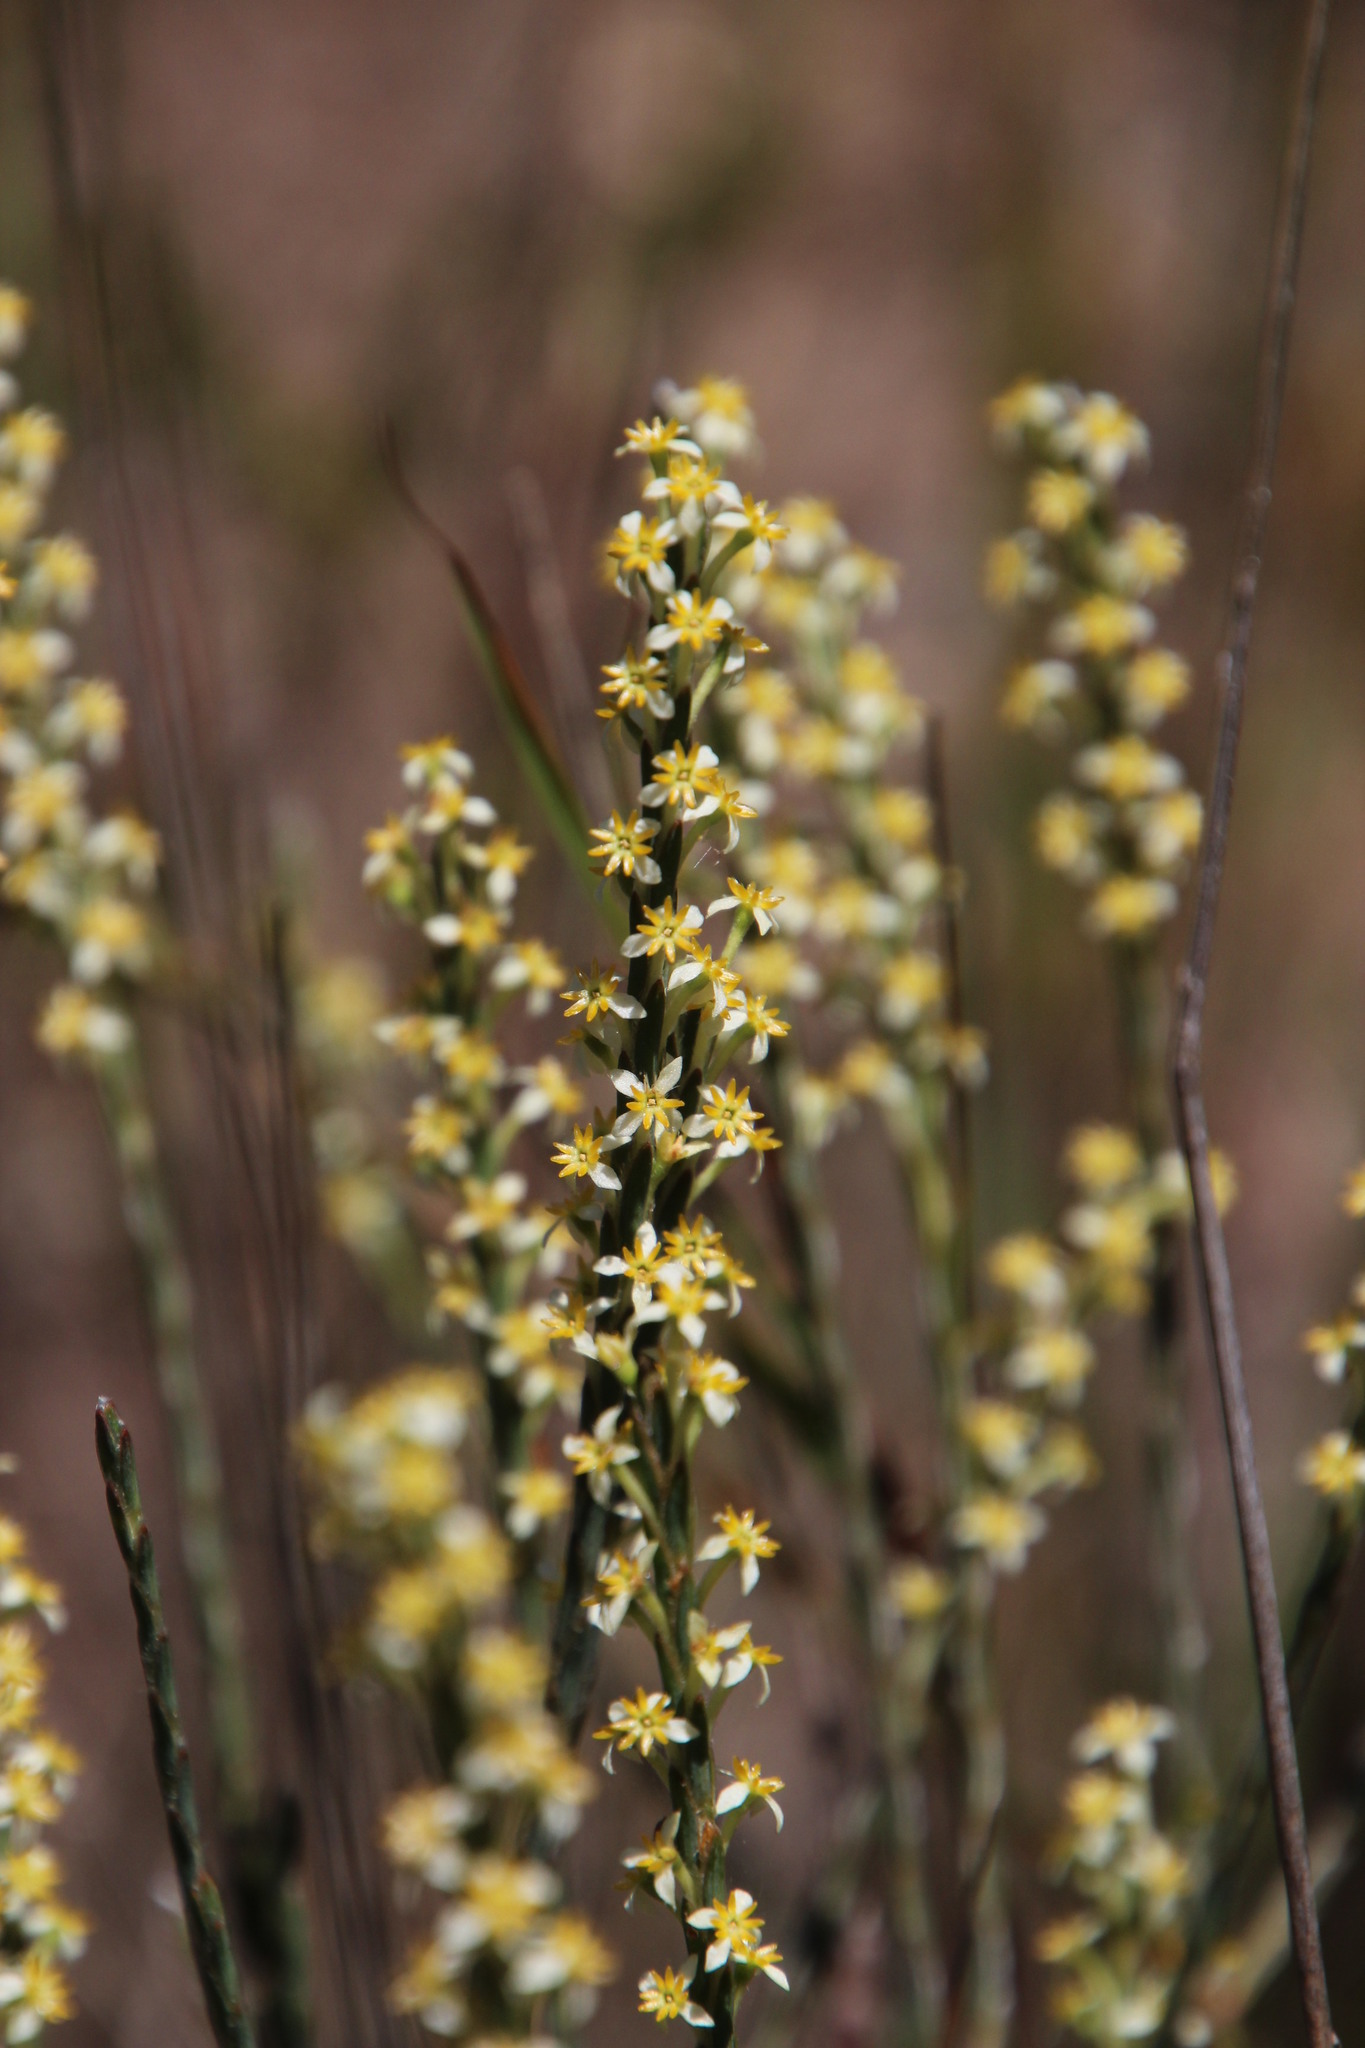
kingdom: Plantae
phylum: Tracheophyta
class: Magnoliopsida
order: Malvales
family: Thymelaeaceae
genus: Struthiola
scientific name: Struthiola ciliata
